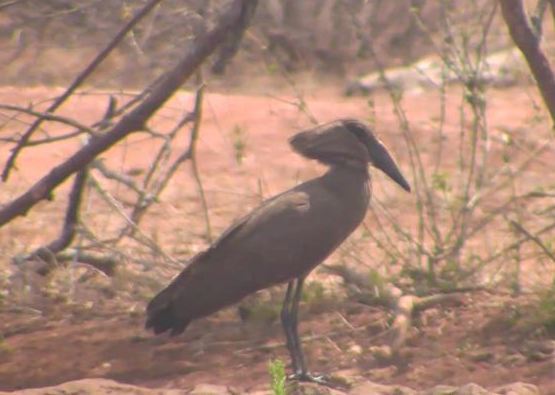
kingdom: Animalia
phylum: Chordata
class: Aves
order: Pelecaniformes
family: Scopidae
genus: Scopus
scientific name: Scopus umbretta
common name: Hamerkop
